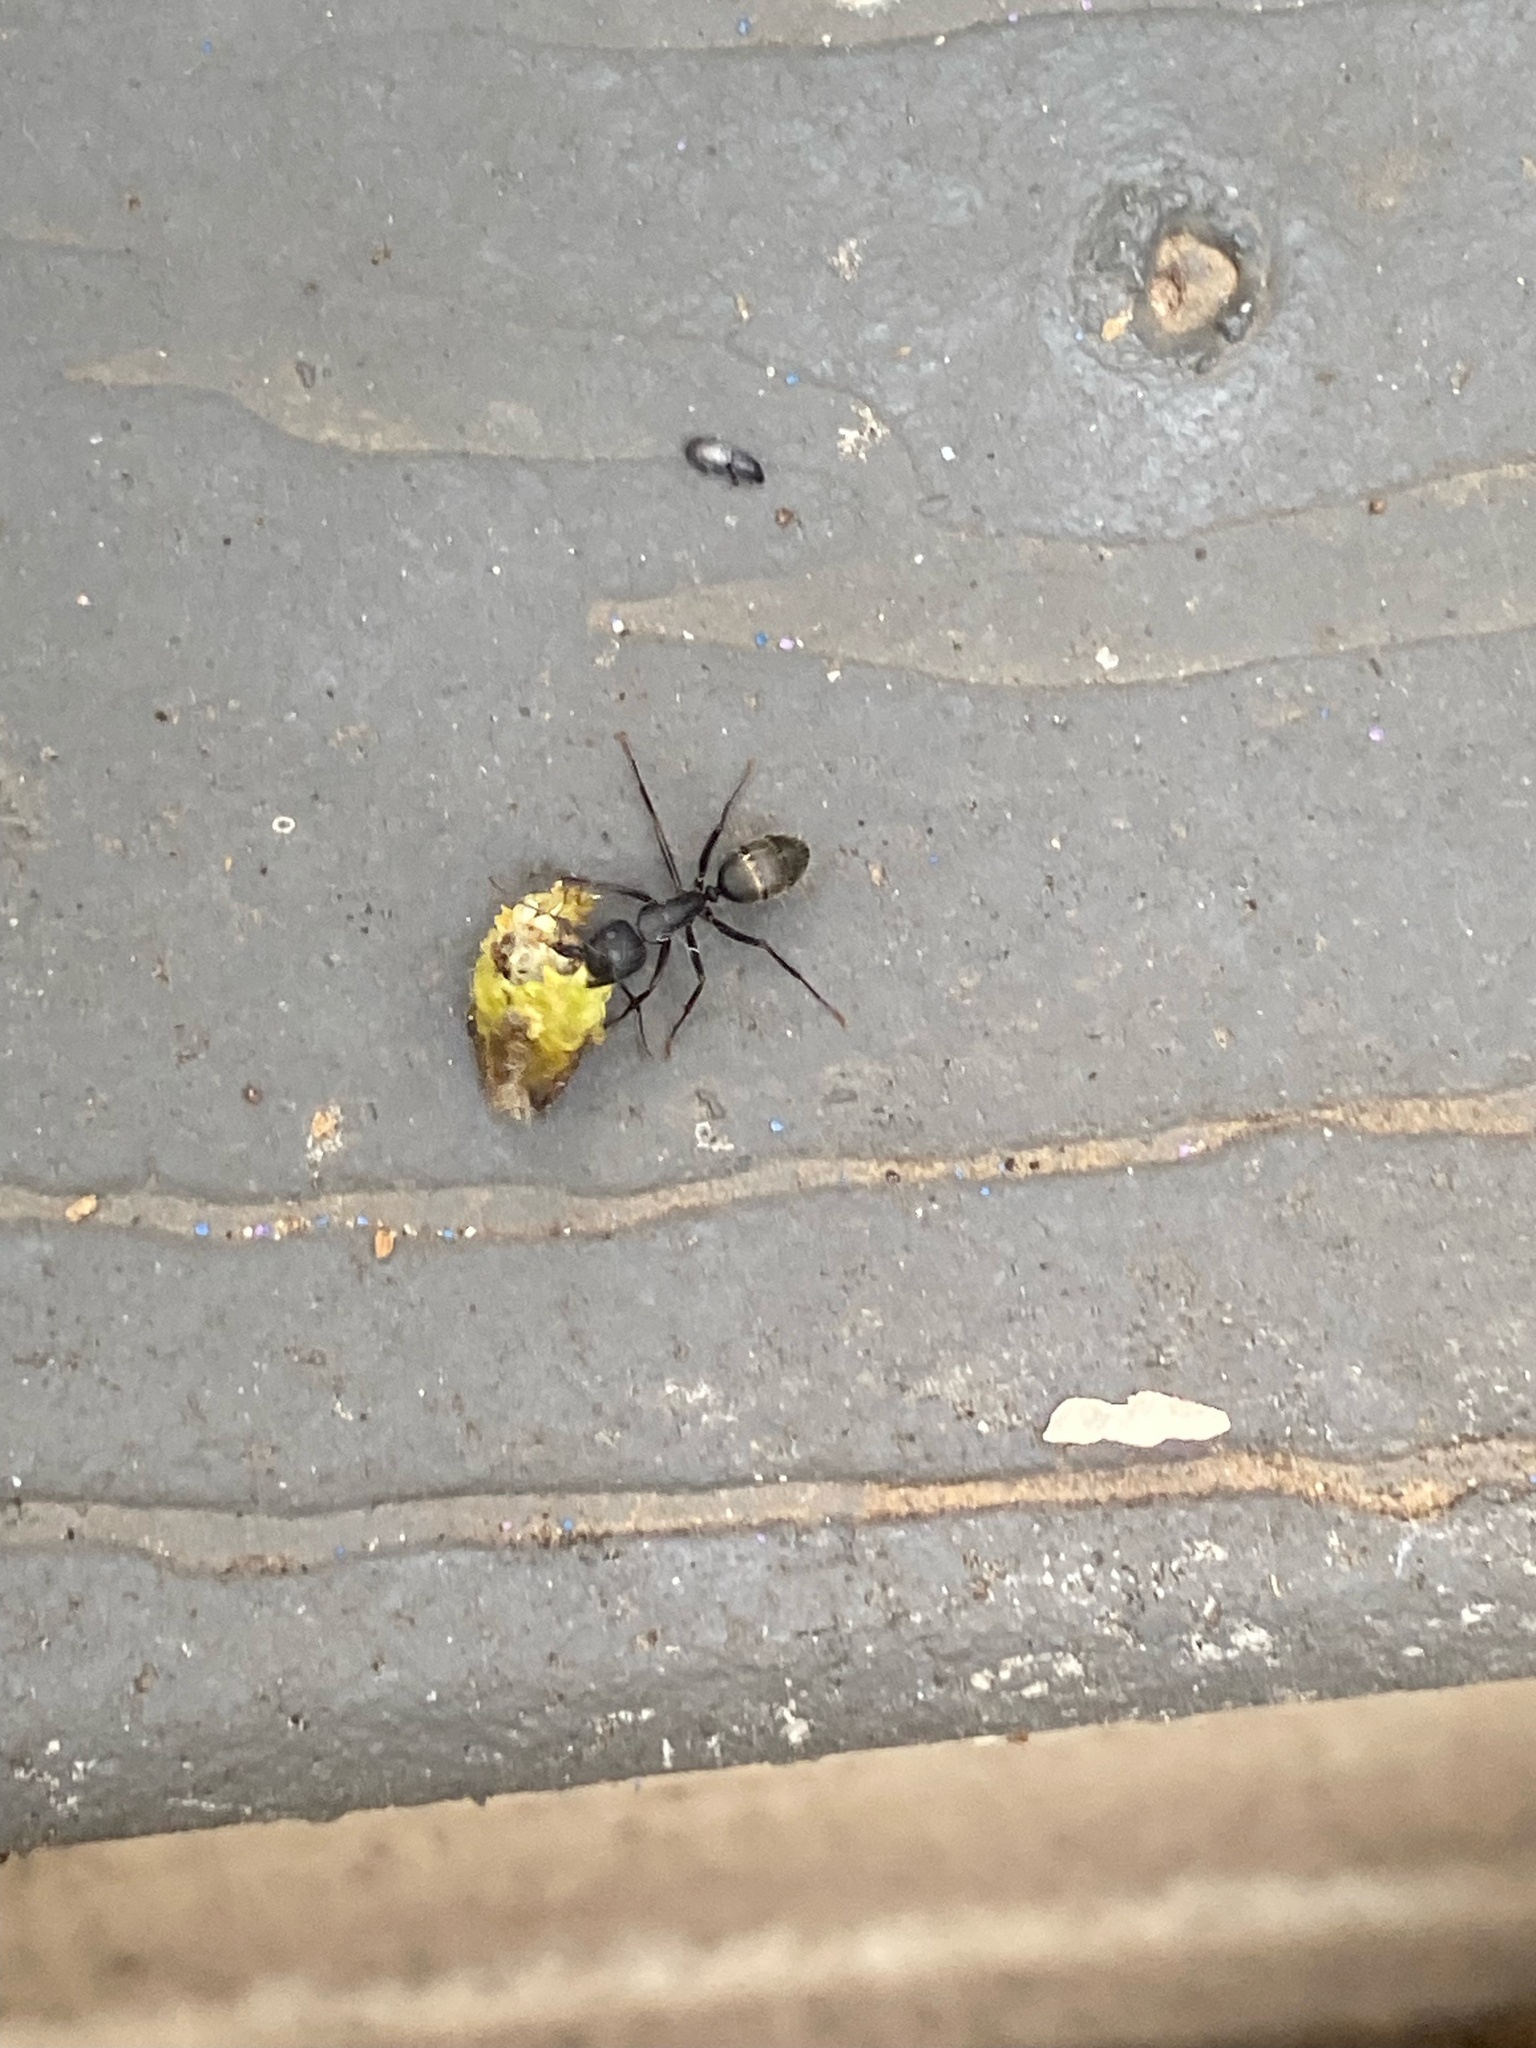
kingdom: Animalia
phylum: Arthropoda
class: Insecta
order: Hymenoptera
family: Formicidae
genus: Camponotus
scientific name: Camponotus pennsylvanicus
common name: Black carpenter ant
